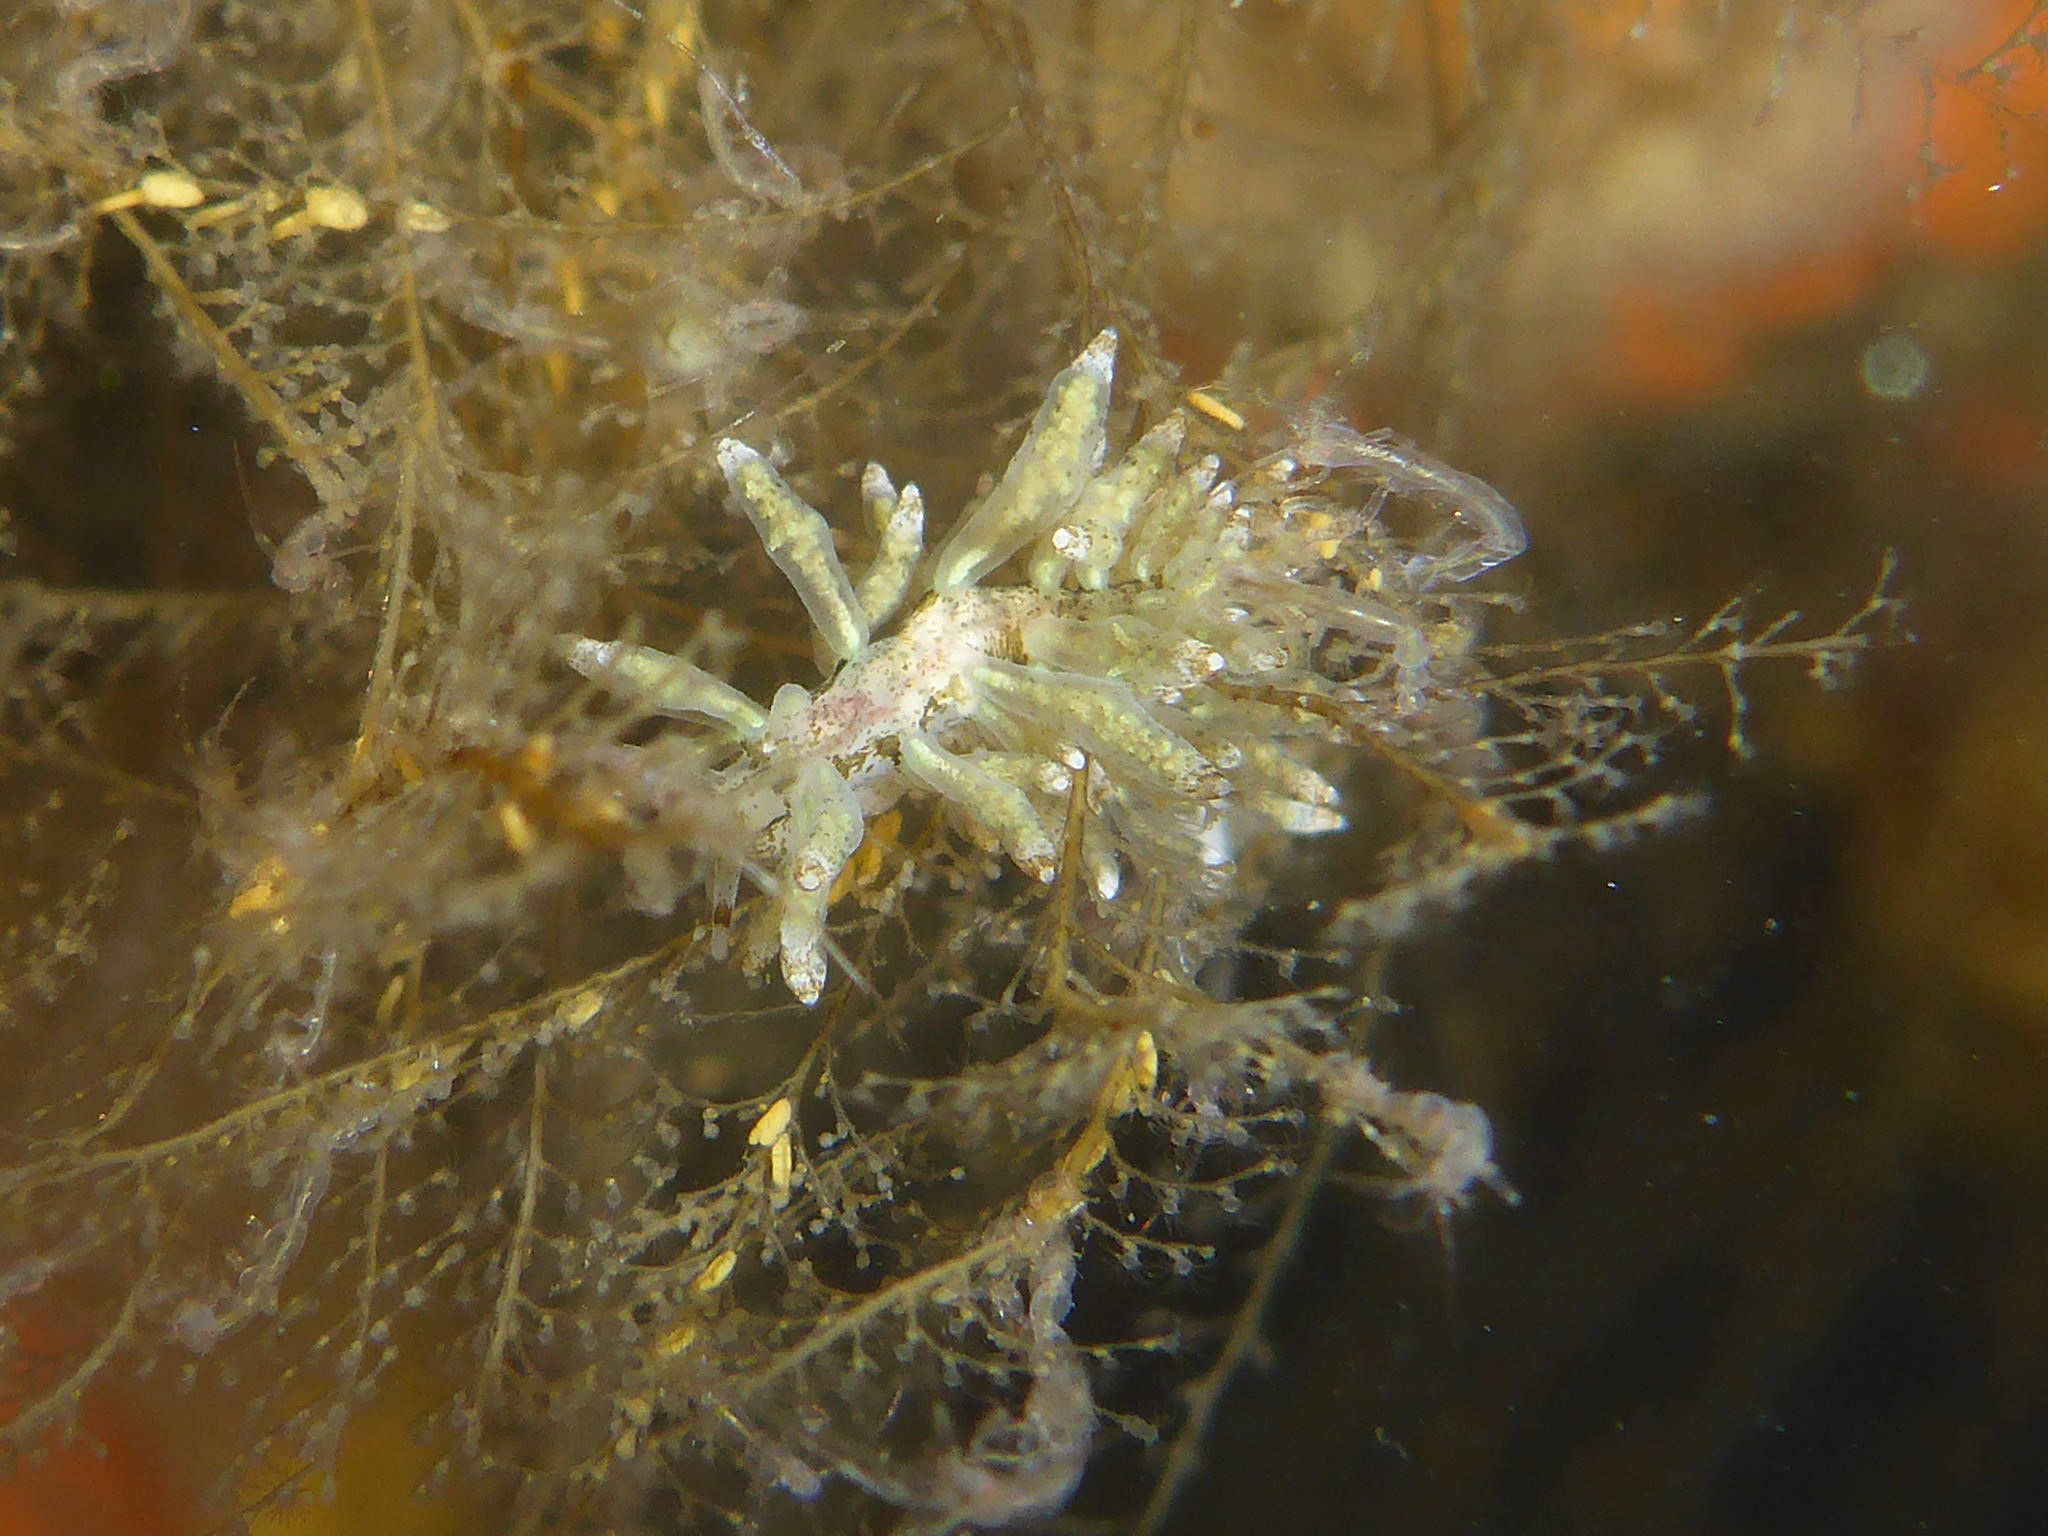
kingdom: Animalia
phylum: Mollusca
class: Gastropoda
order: Nudibranchia
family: Eubranchidae
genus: Eubranchus
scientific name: Eubranchus rustyus
